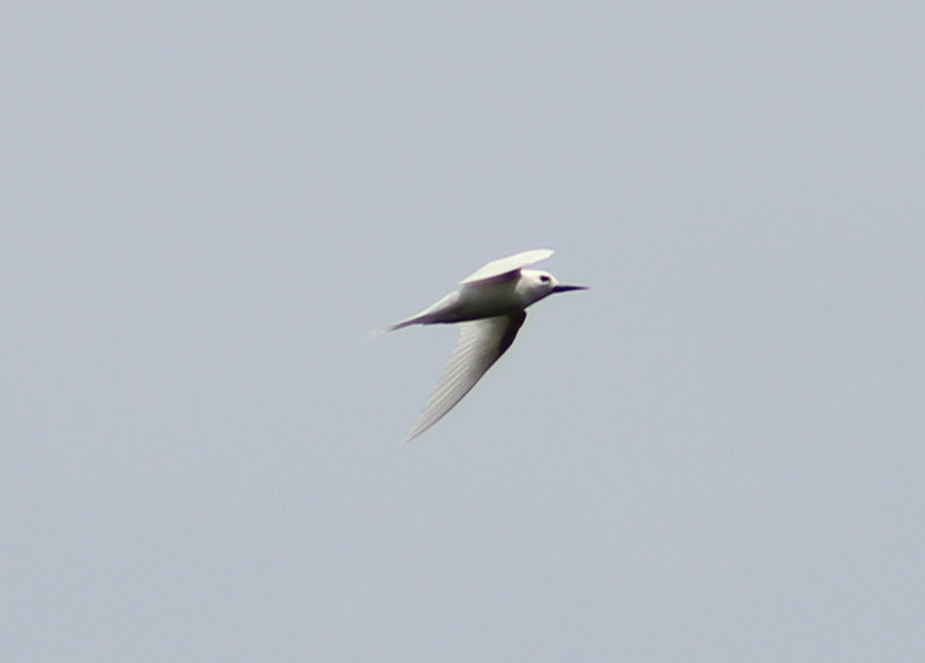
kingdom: Animalia
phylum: Chordata
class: Aves
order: Charadriiformes
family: Laridae
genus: Gygis
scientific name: Gygis alba
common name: White tern
